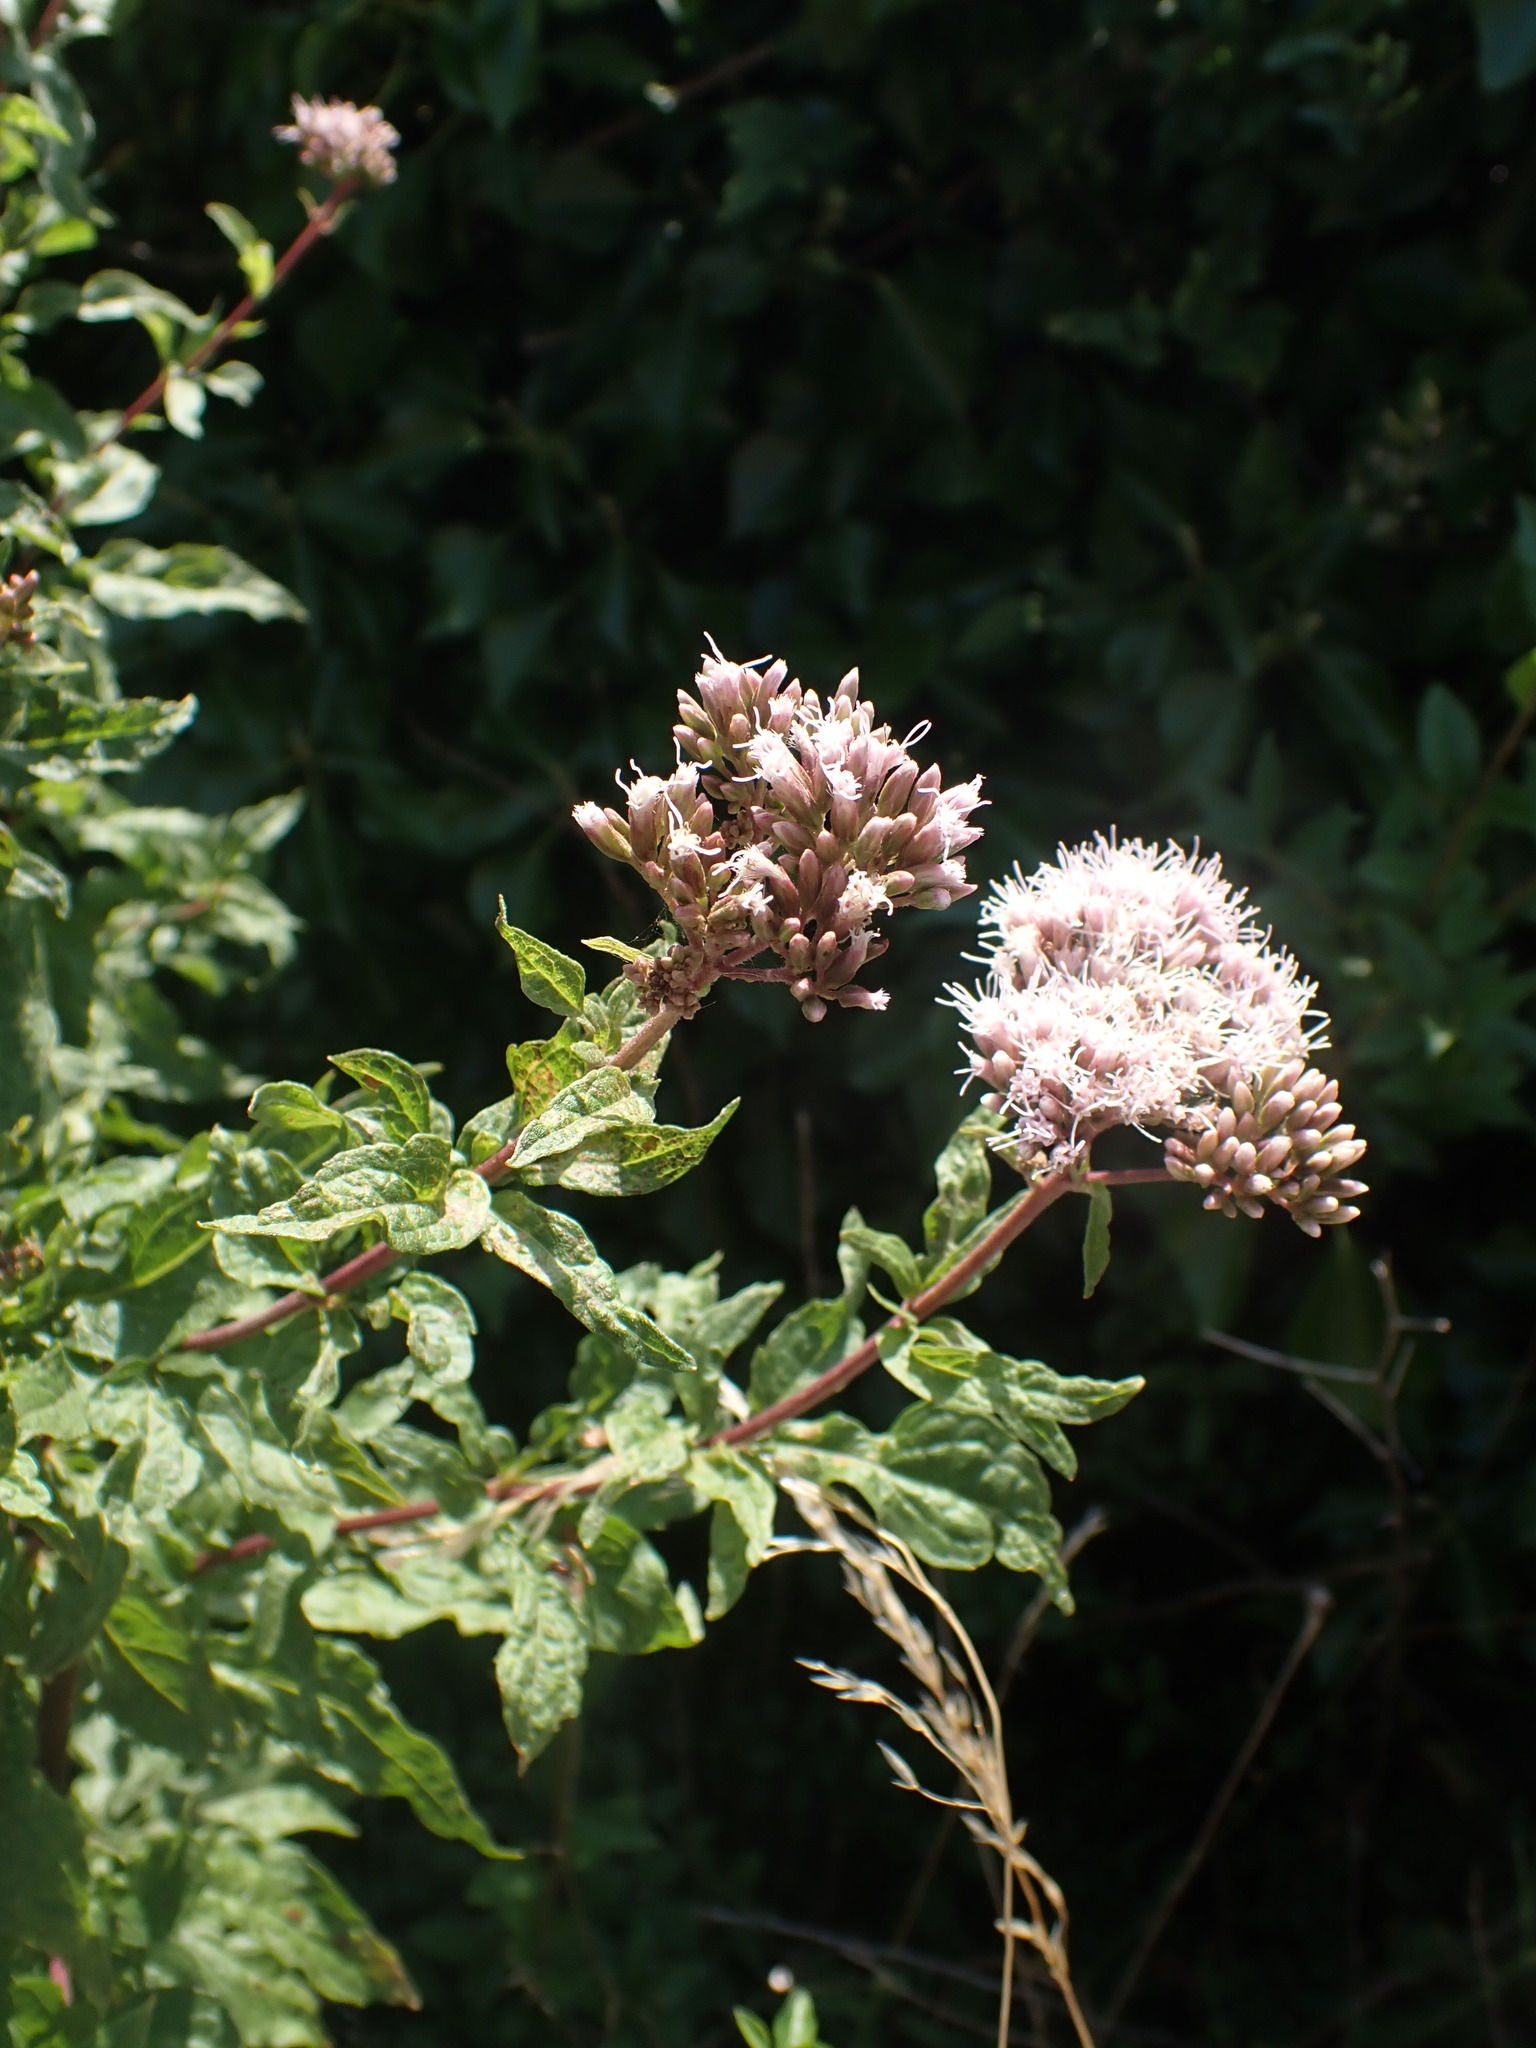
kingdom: Plantae
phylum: Tracheophyta
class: Magnoliopsida
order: Asterales
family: Asteraceae
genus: Eupatorium
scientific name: Eupatorium cannabinum
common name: Hemp-agrimony
